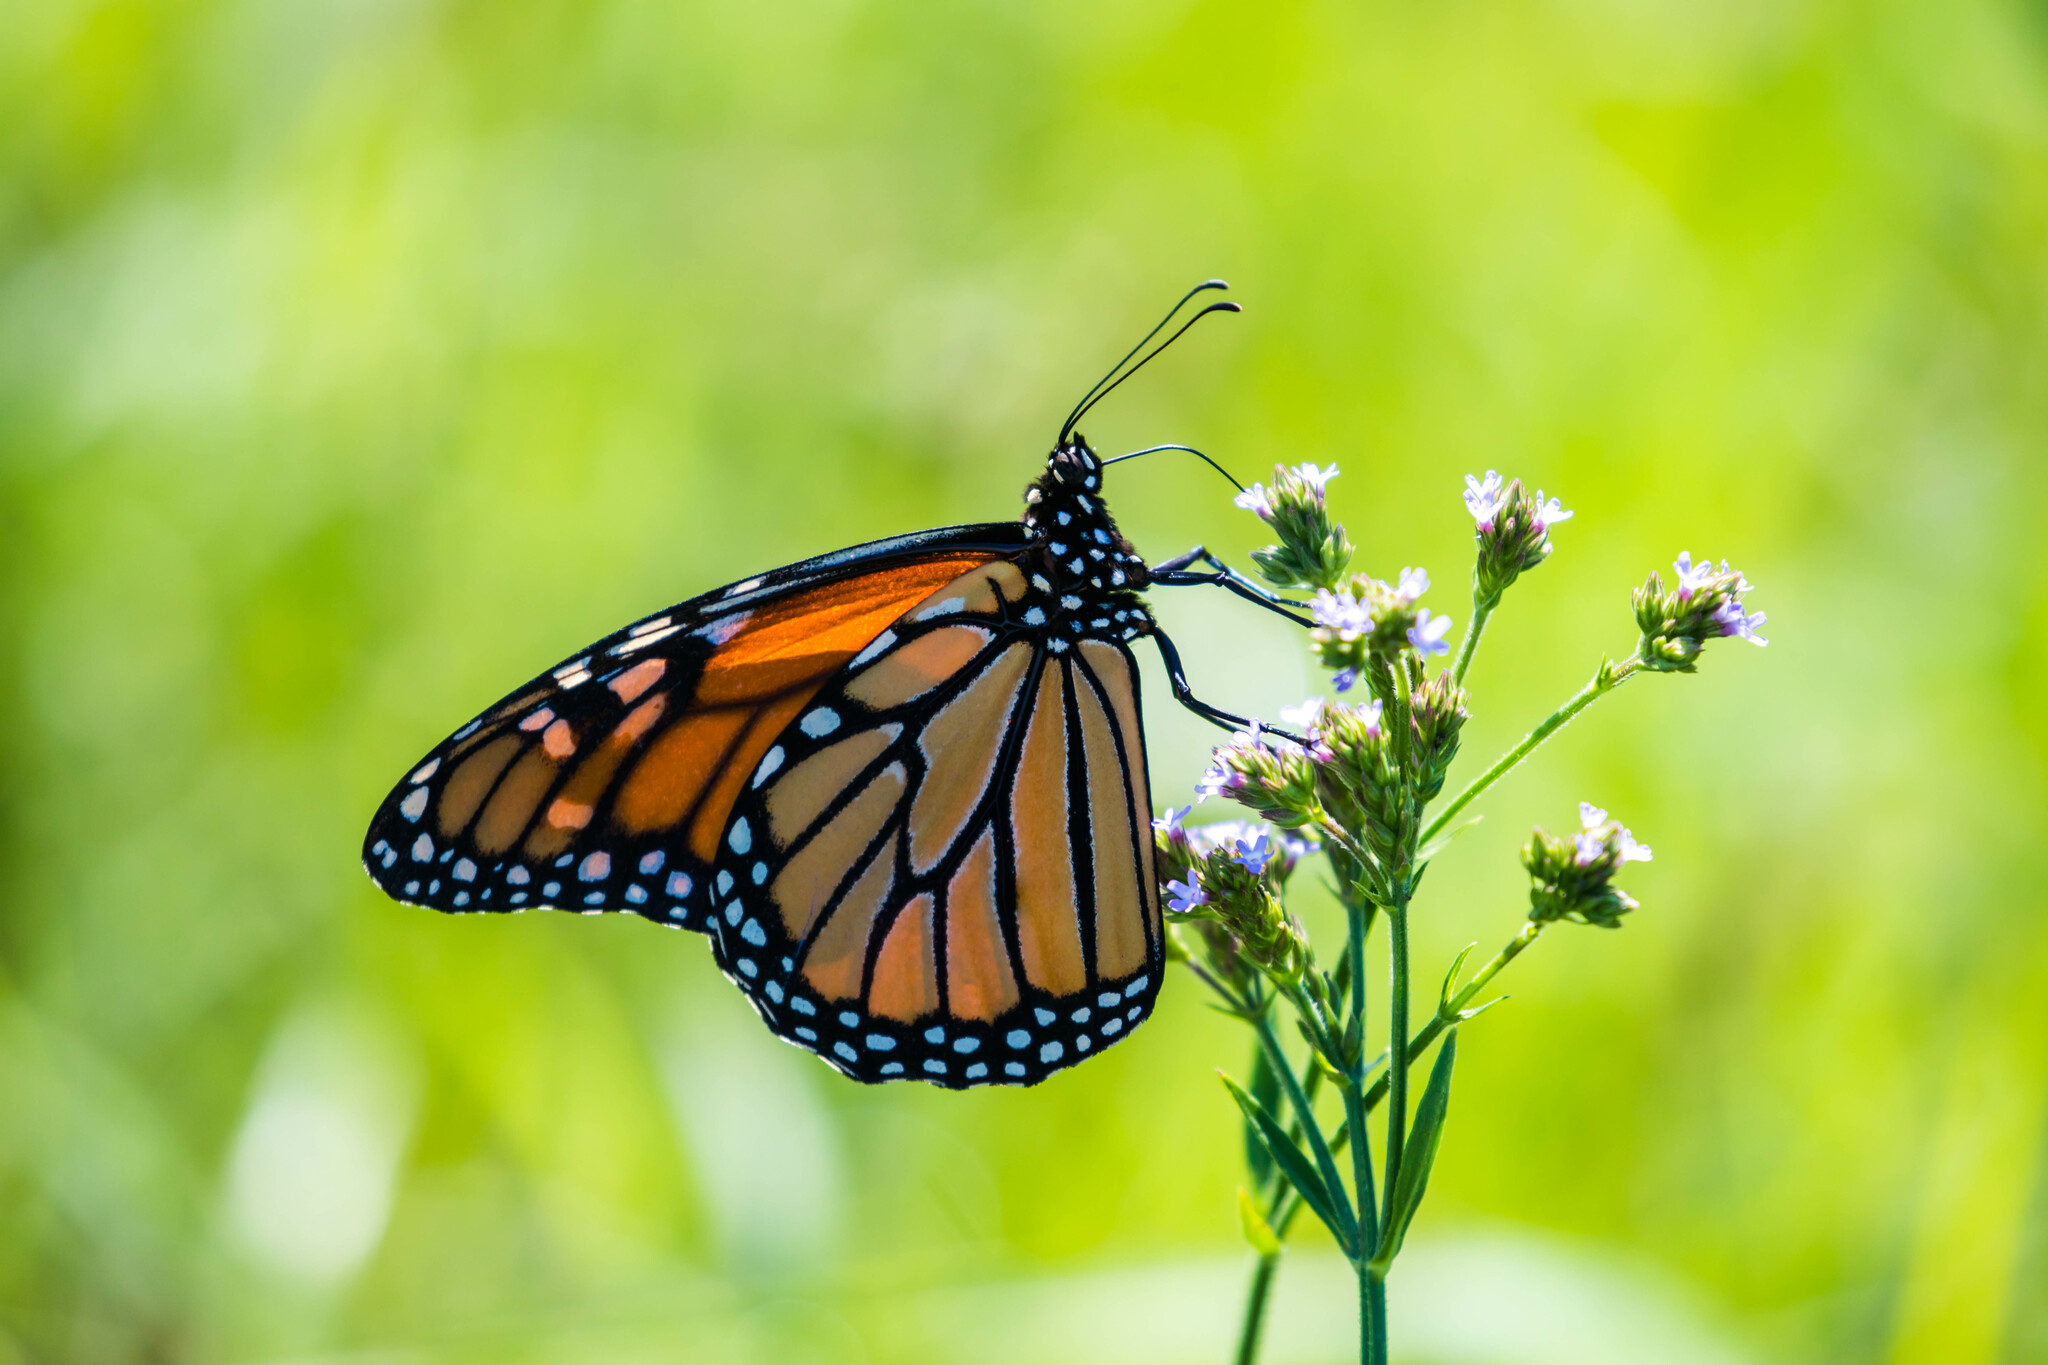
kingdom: Animalia
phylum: Arthropoda
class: Insecta
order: Lepidoptera
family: Nymphalidae
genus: Danaus
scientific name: Danaus plexippus
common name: Monarch
